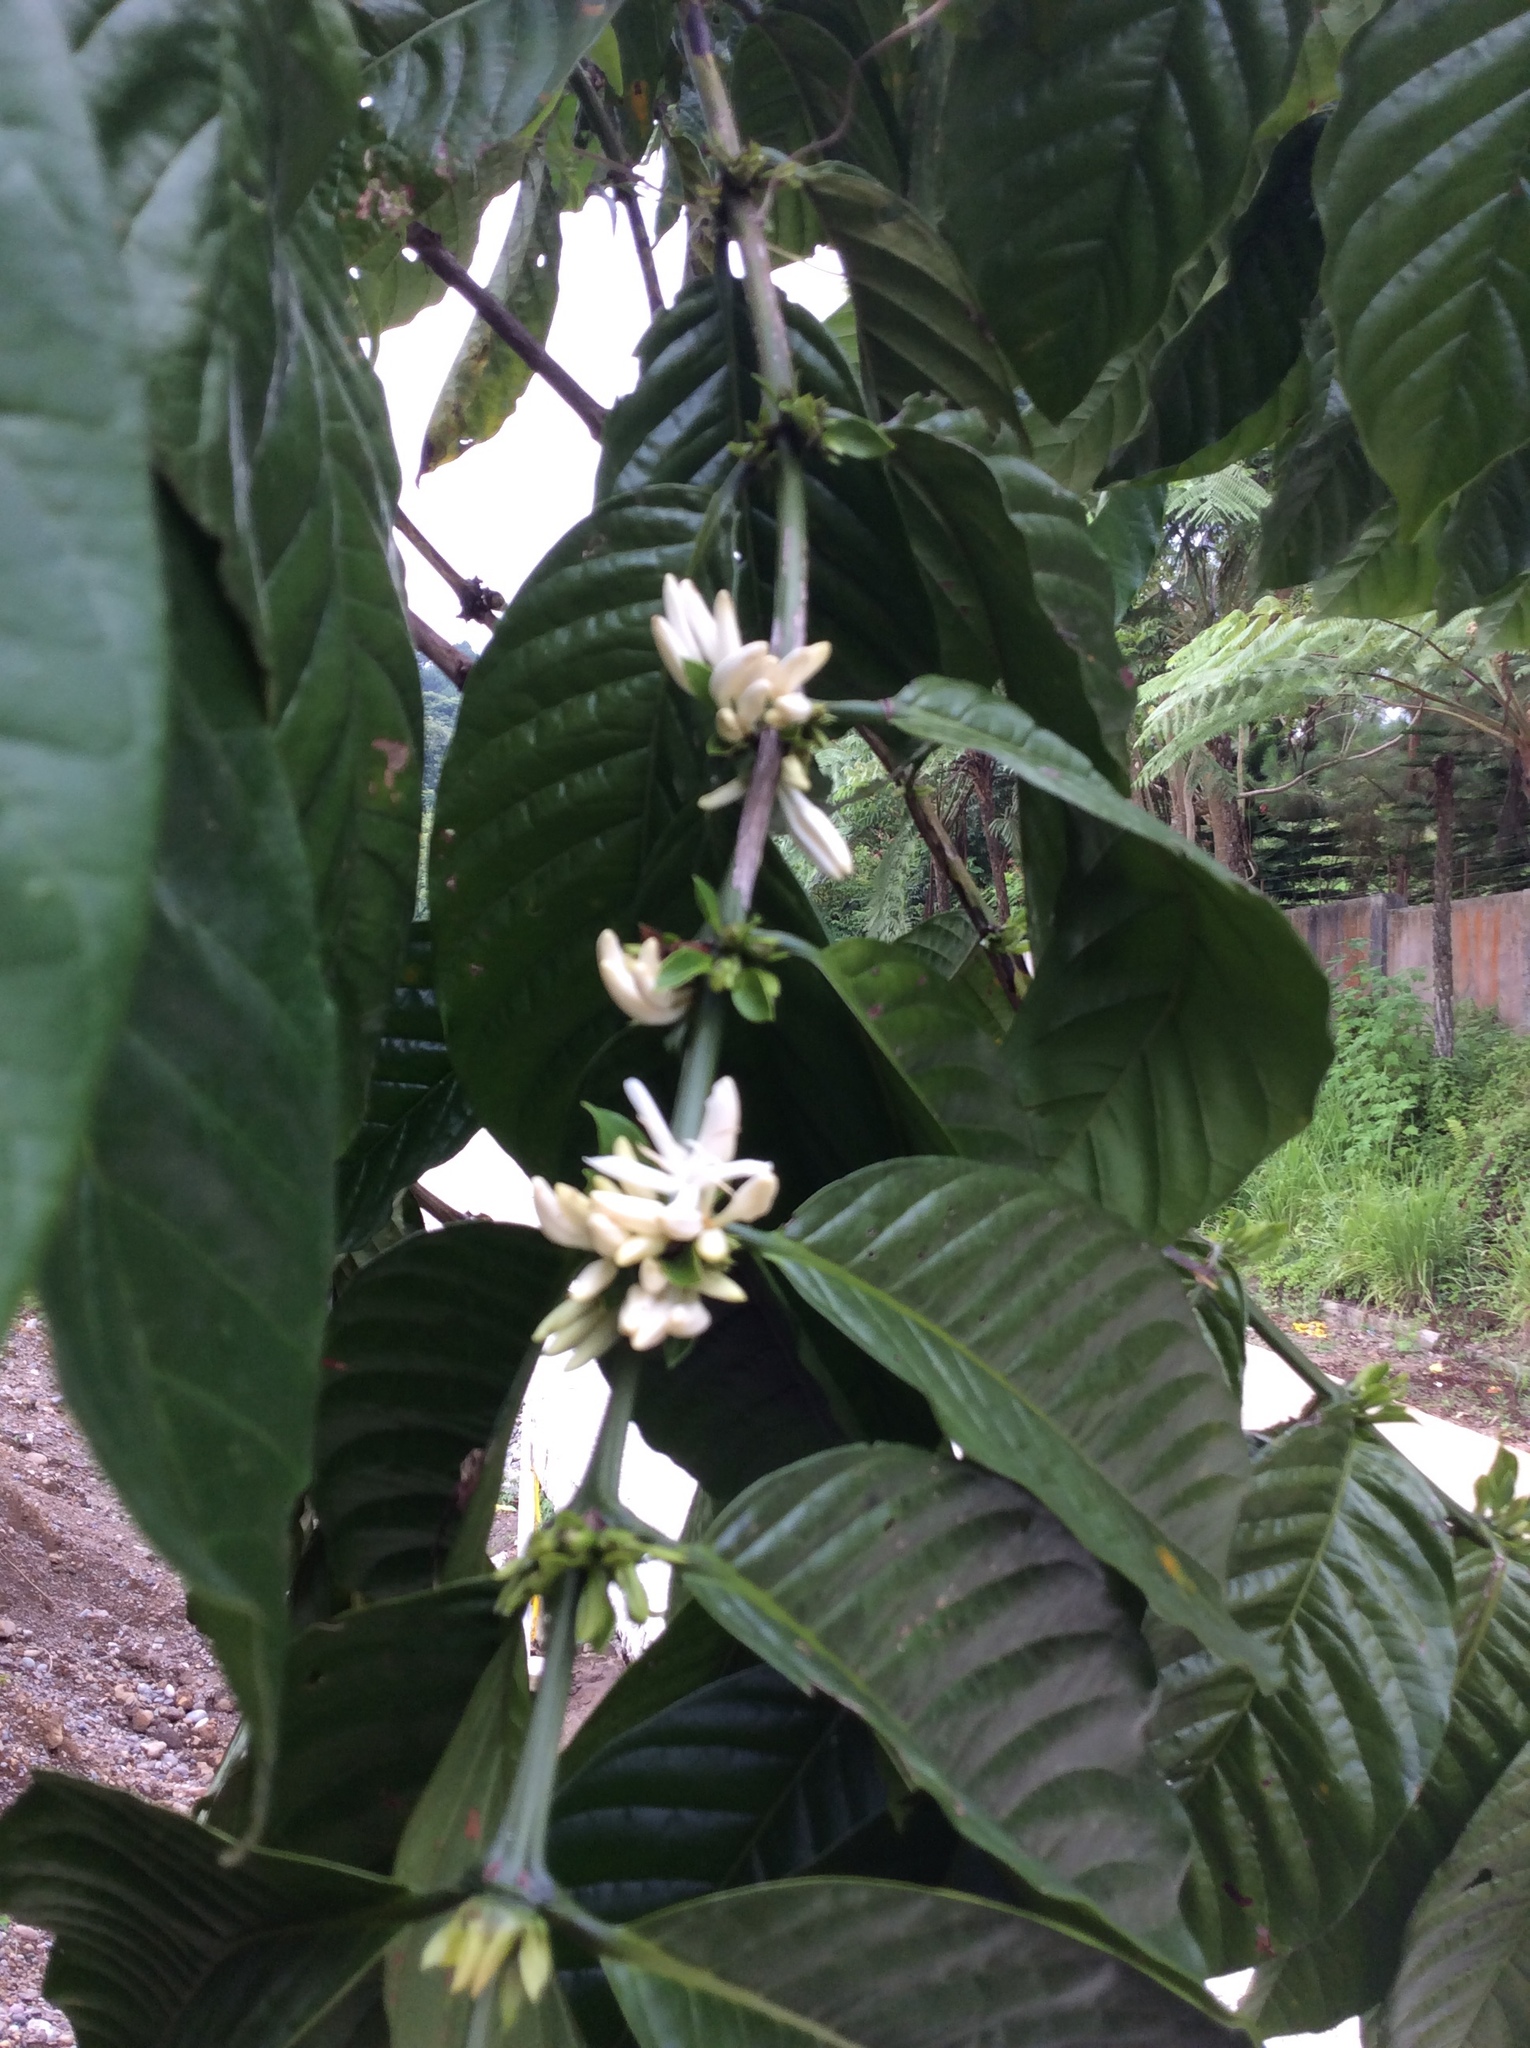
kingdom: Plantae
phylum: Tracheophyta
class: Magnoliopsida
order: Gentianales
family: Rubiaceae
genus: Coffea
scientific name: Coffea arabica
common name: Coffee
